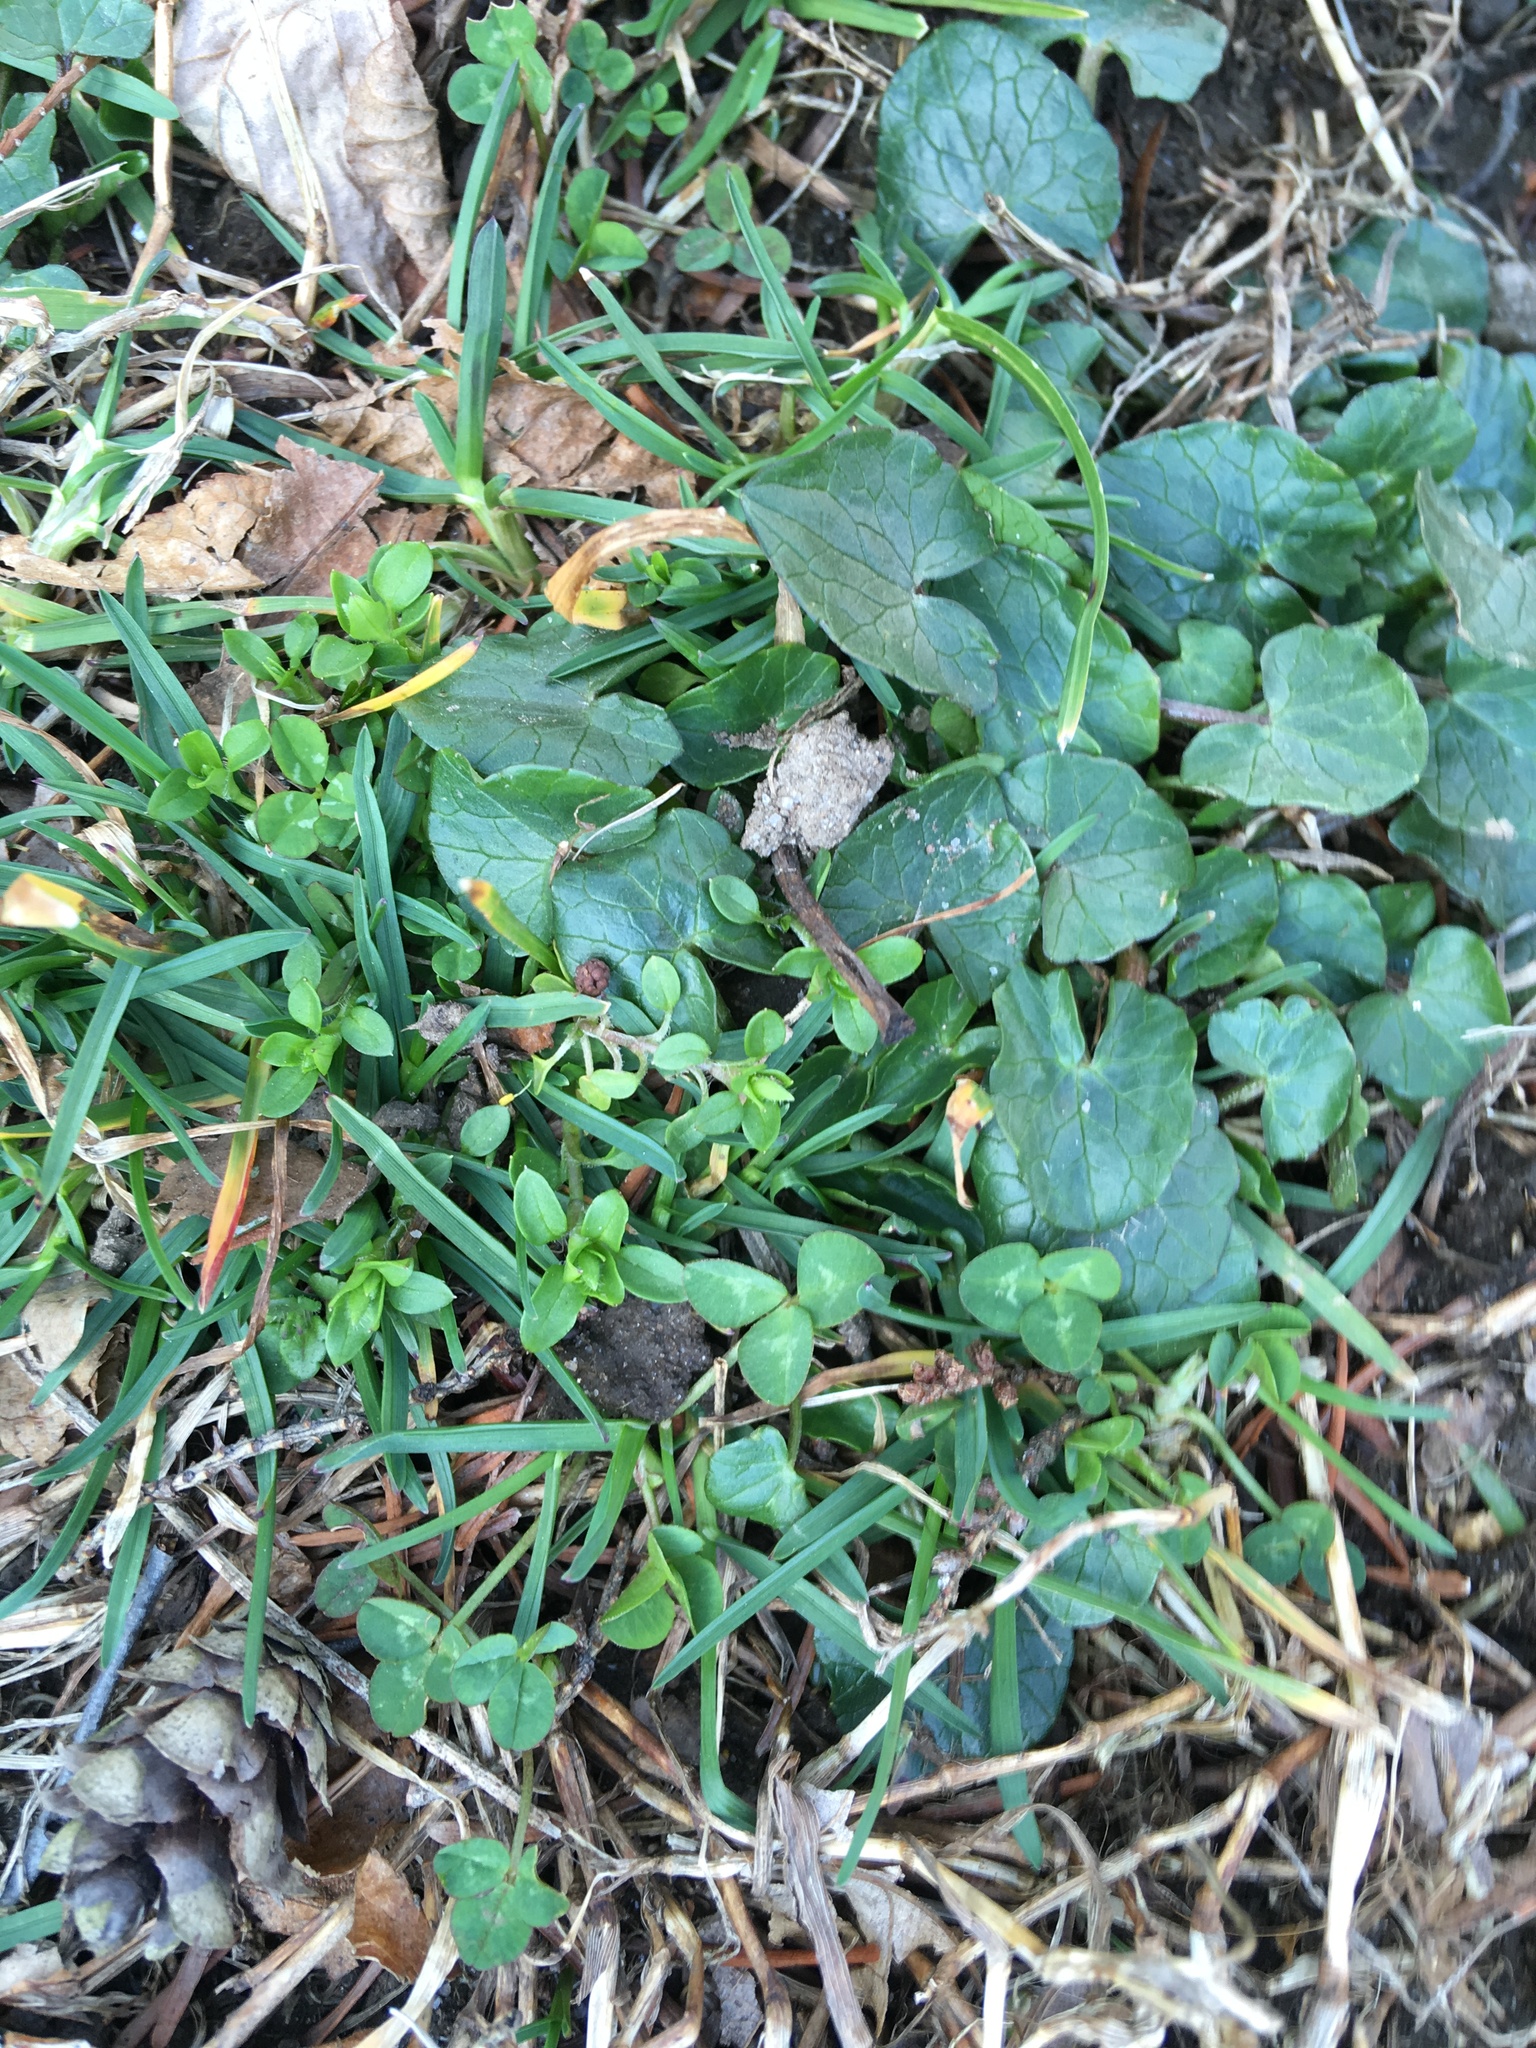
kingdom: Plantae
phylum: Tracheophyta
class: Magnoliopsida
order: Ranunculales
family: Ranunculaceae
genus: Ficaria
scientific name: Ficaria verna
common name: Lesser celandine
